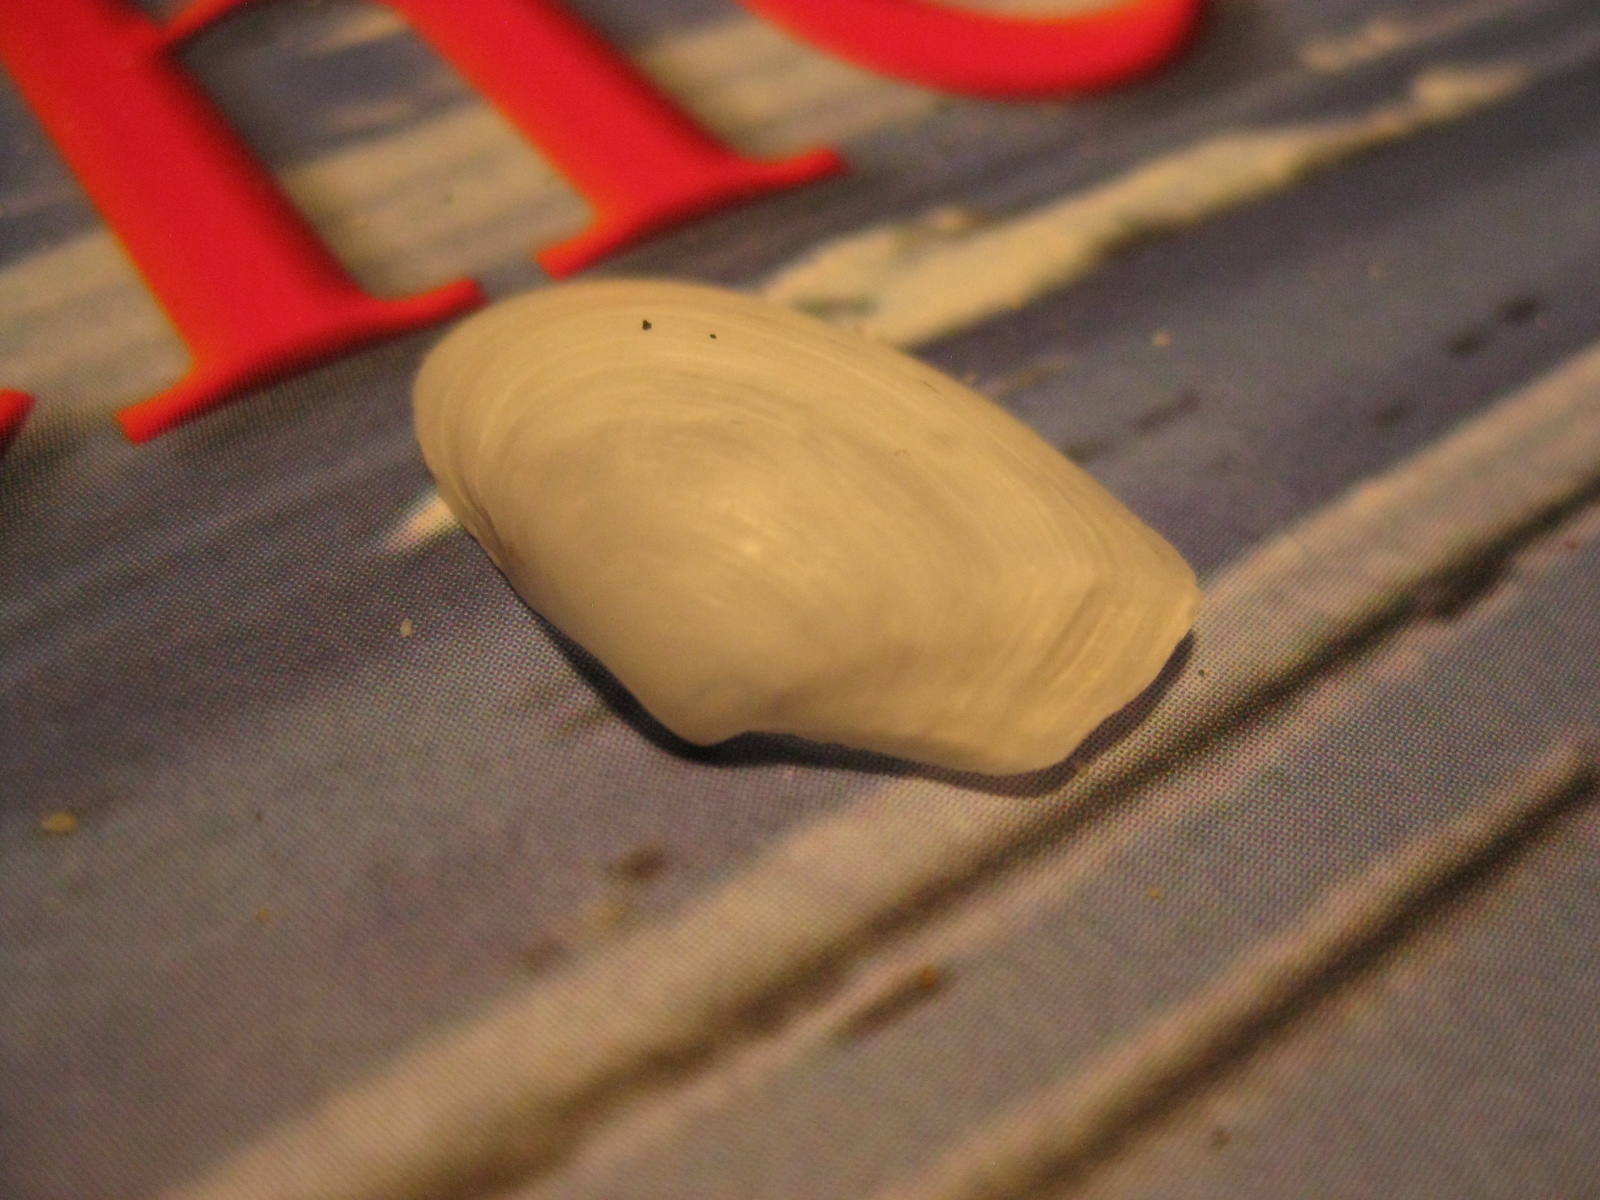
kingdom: Animalia
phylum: Mollusca
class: Bivalvia
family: Myochamidae
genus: Hunkydora
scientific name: Hunkydora novozelandica
